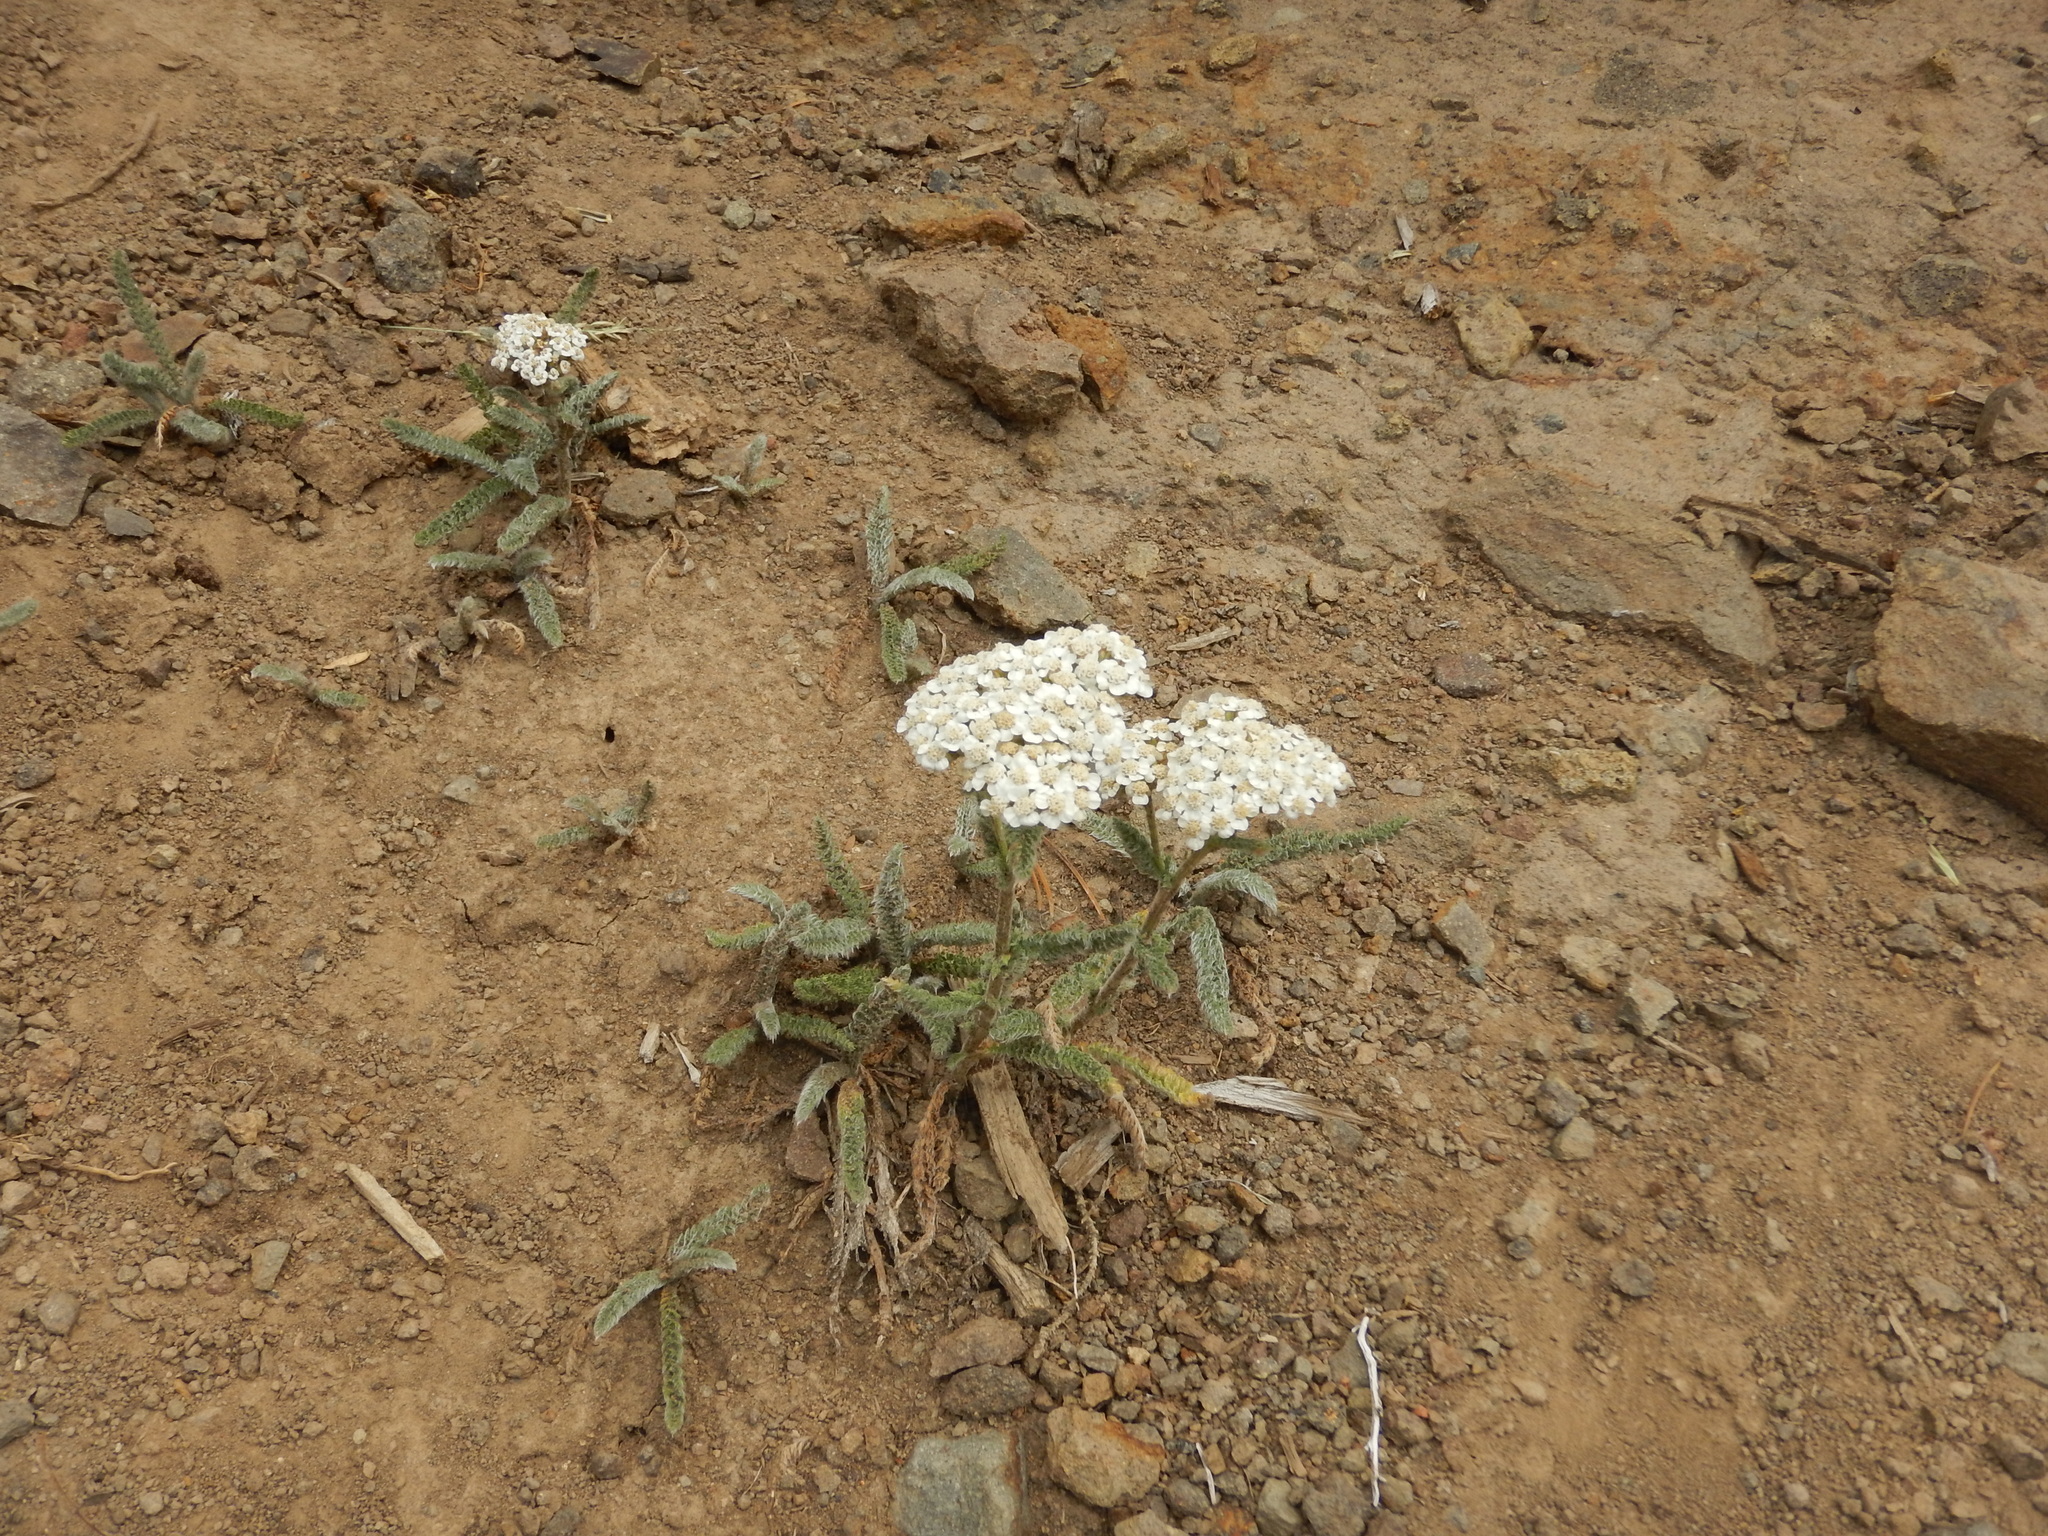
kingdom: Plantae
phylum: Tracheophyta
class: Magnoliopsida
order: Asterales
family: Asteraceae
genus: Achillea
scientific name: Achillea millefolium
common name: Yarrow
